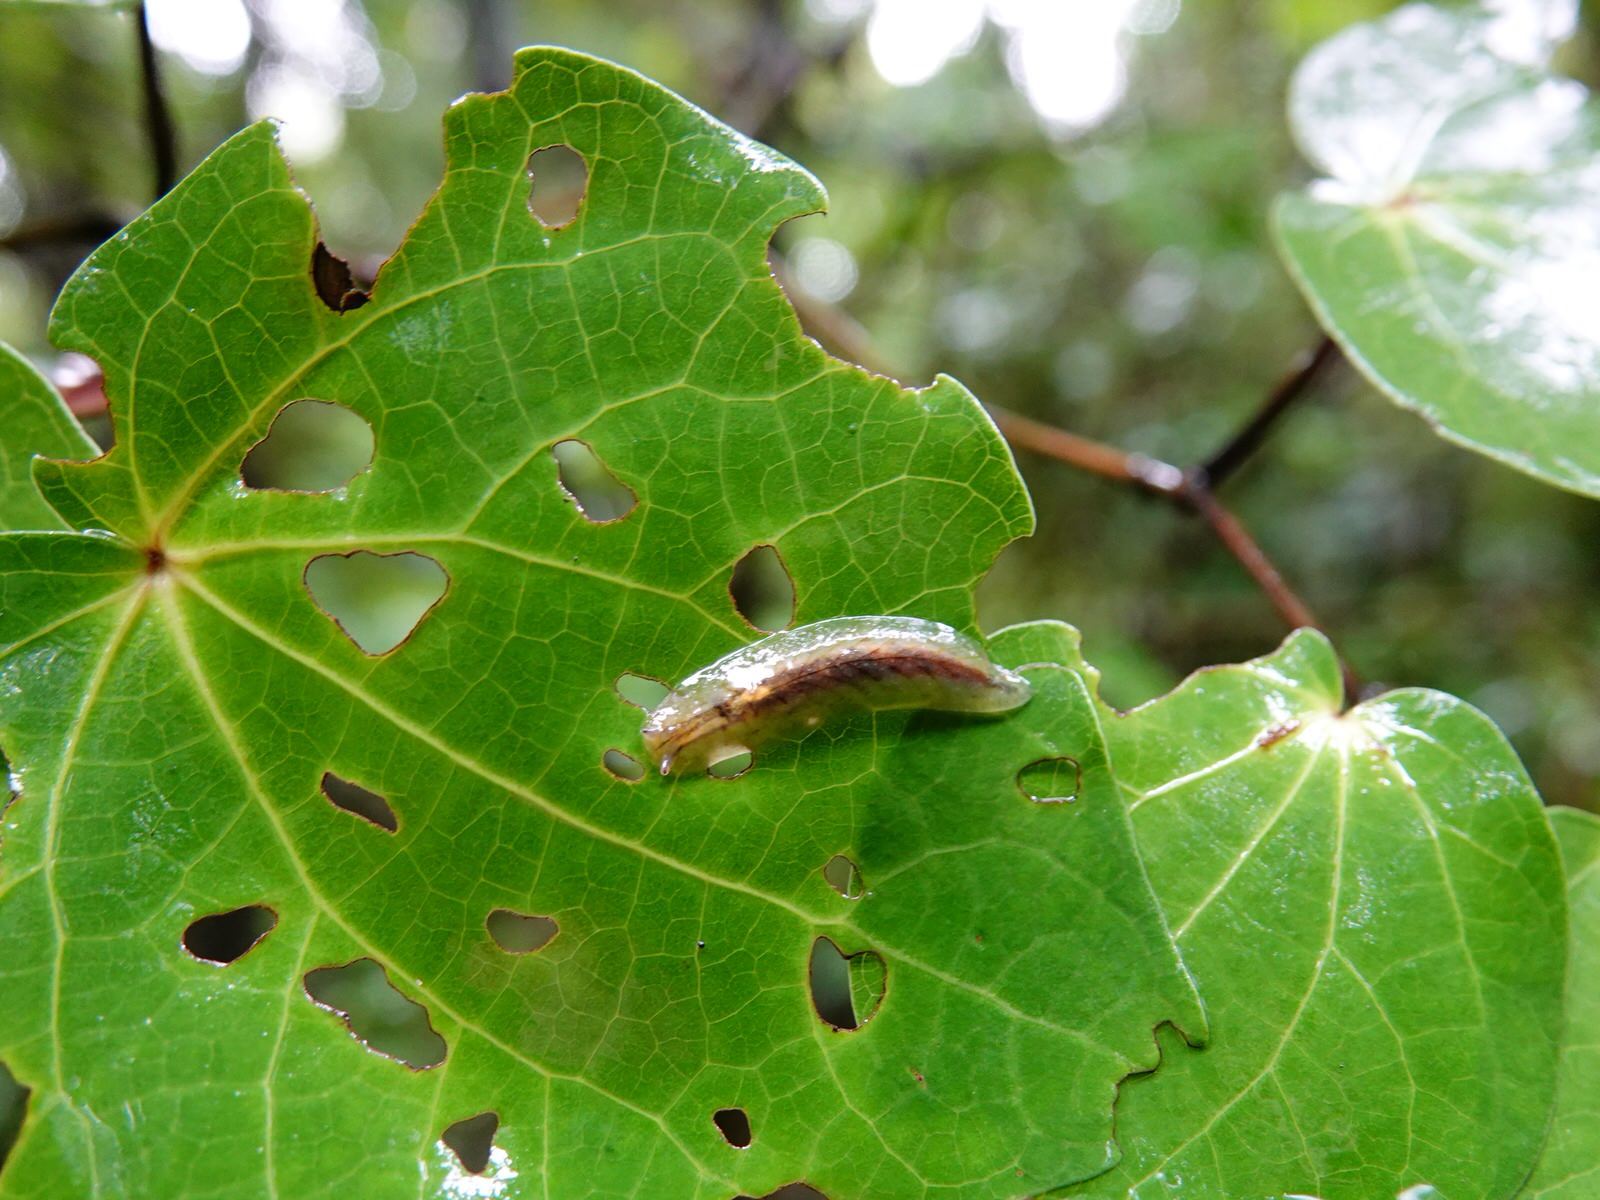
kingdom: Animalia
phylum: Mollusca
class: Gastropoda
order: Stylommatophora
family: Athoracophoridae
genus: Athoracophorus
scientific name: Athoracophorus bitentaculatus
